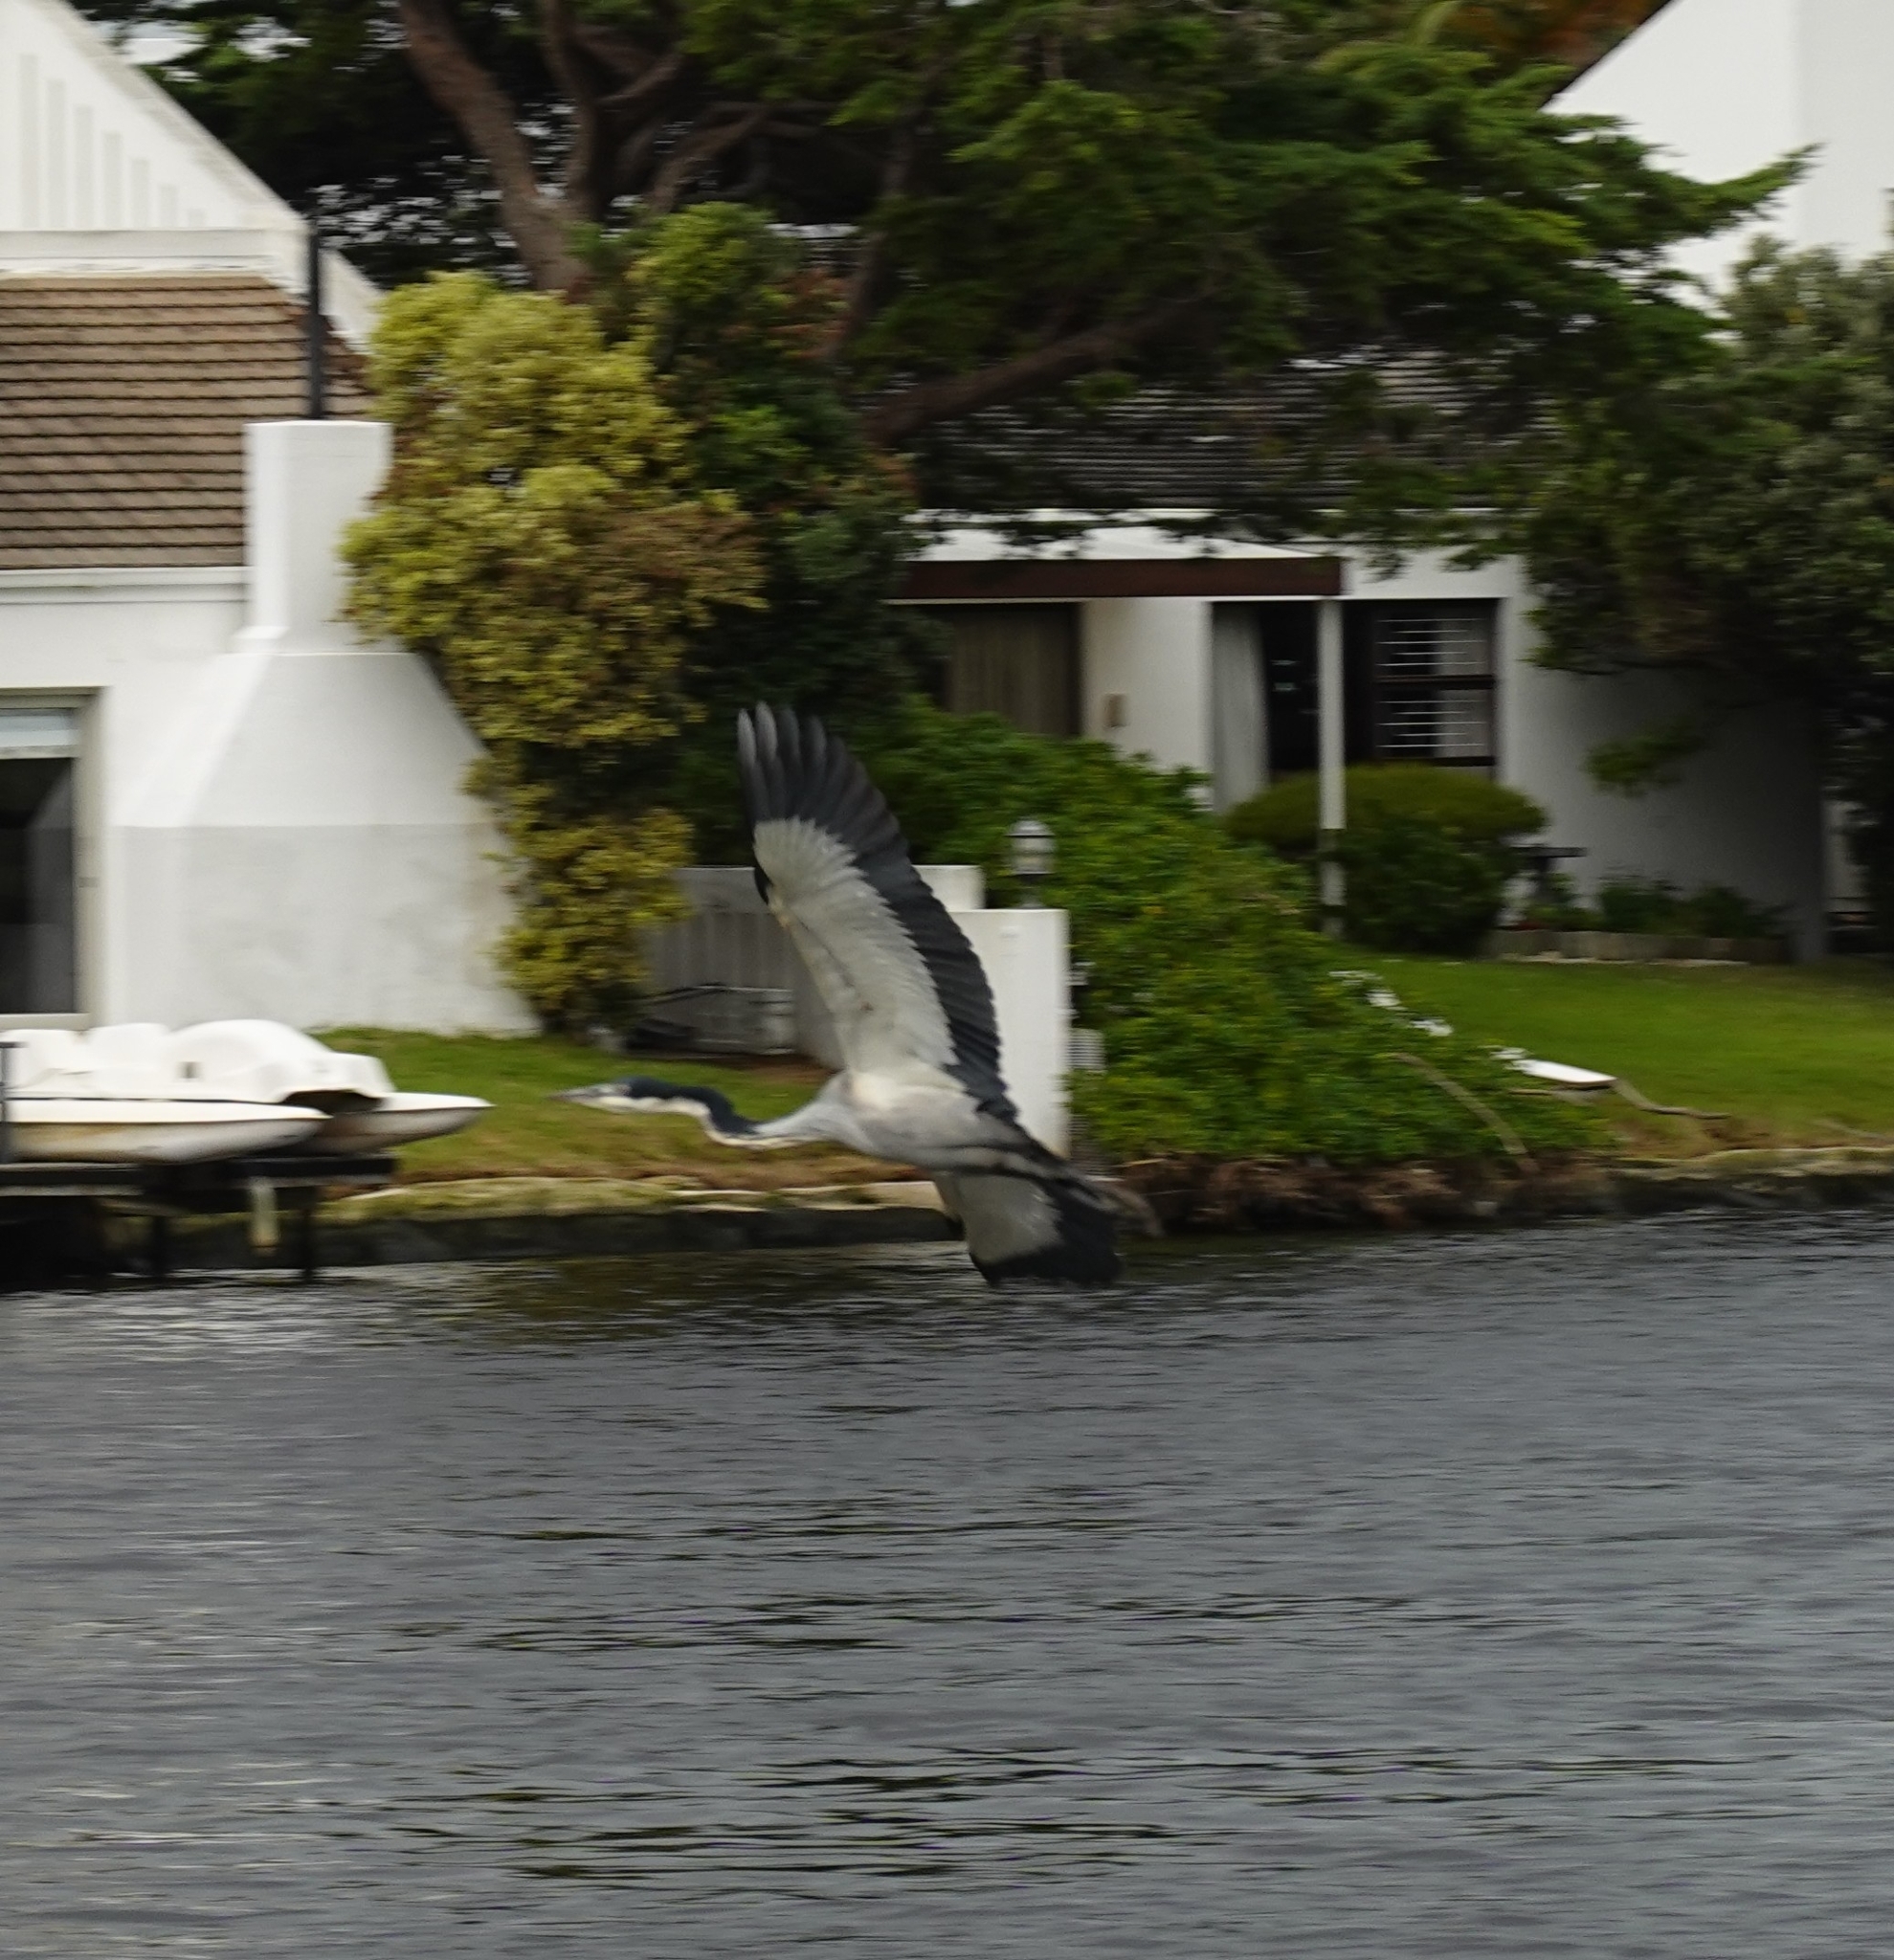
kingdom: Animalia
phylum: Chordata
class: Aves
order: Pelecaniformes
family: Ardeidae
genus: Ardea
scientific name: Ardea melanocephala
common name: Black-headed heron
